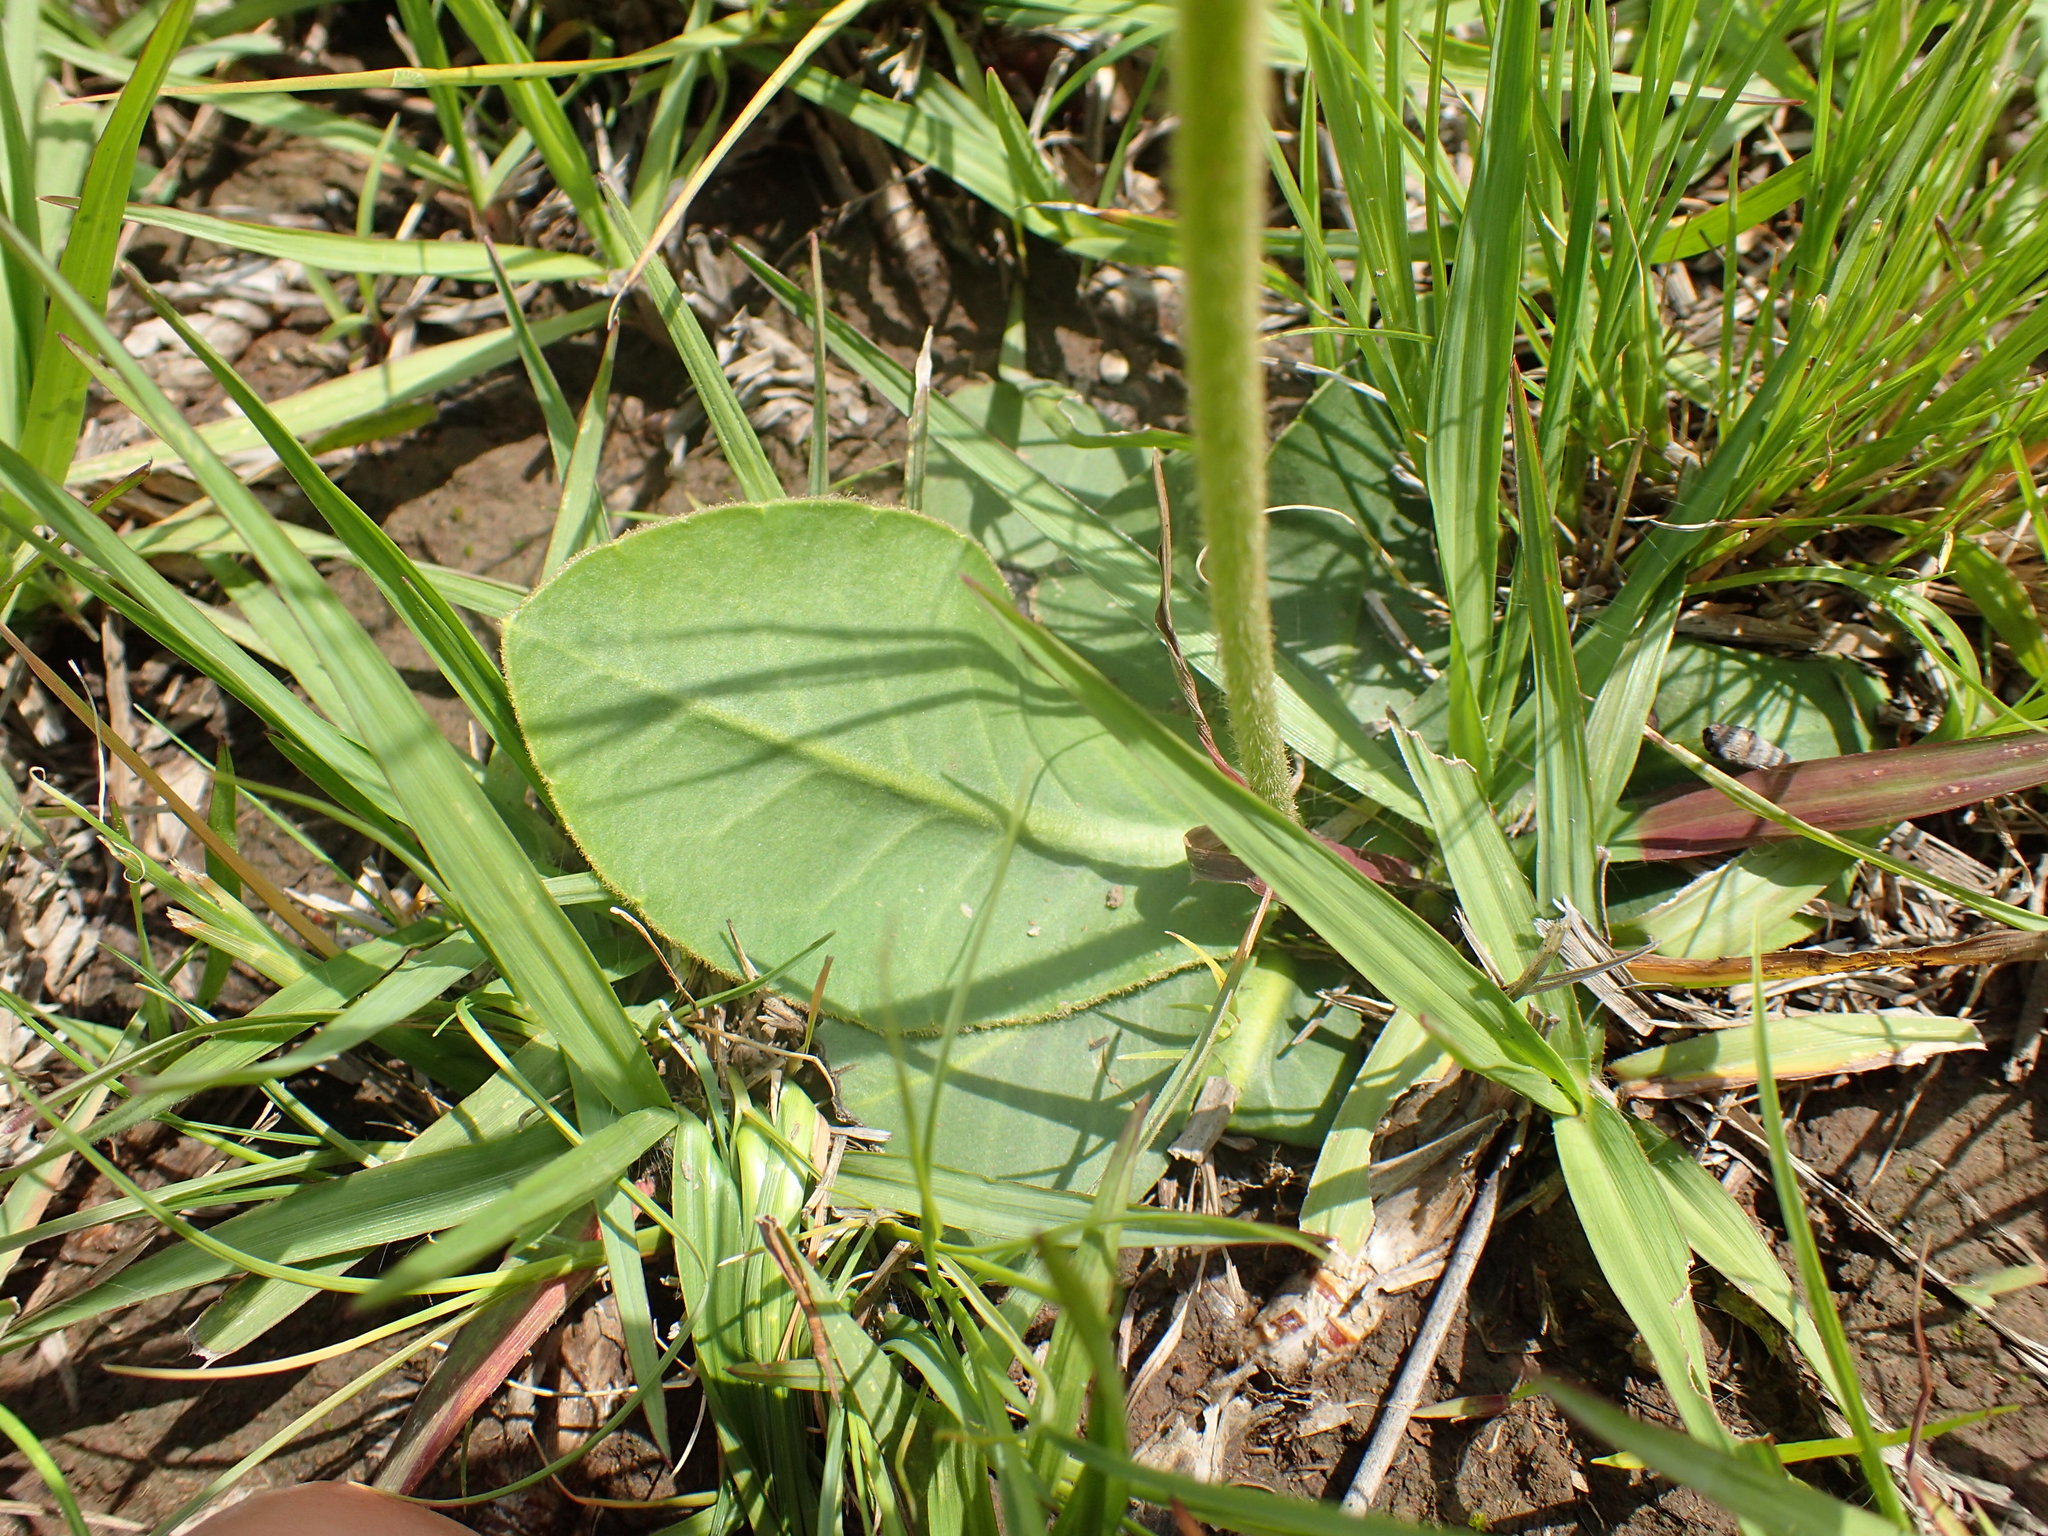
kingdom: Plantae
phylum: Tracheophyta
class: Magnoliopsida
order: Asterales
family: Asteraceae
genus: Piloselloides
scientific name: Piloselloides hirsuta
